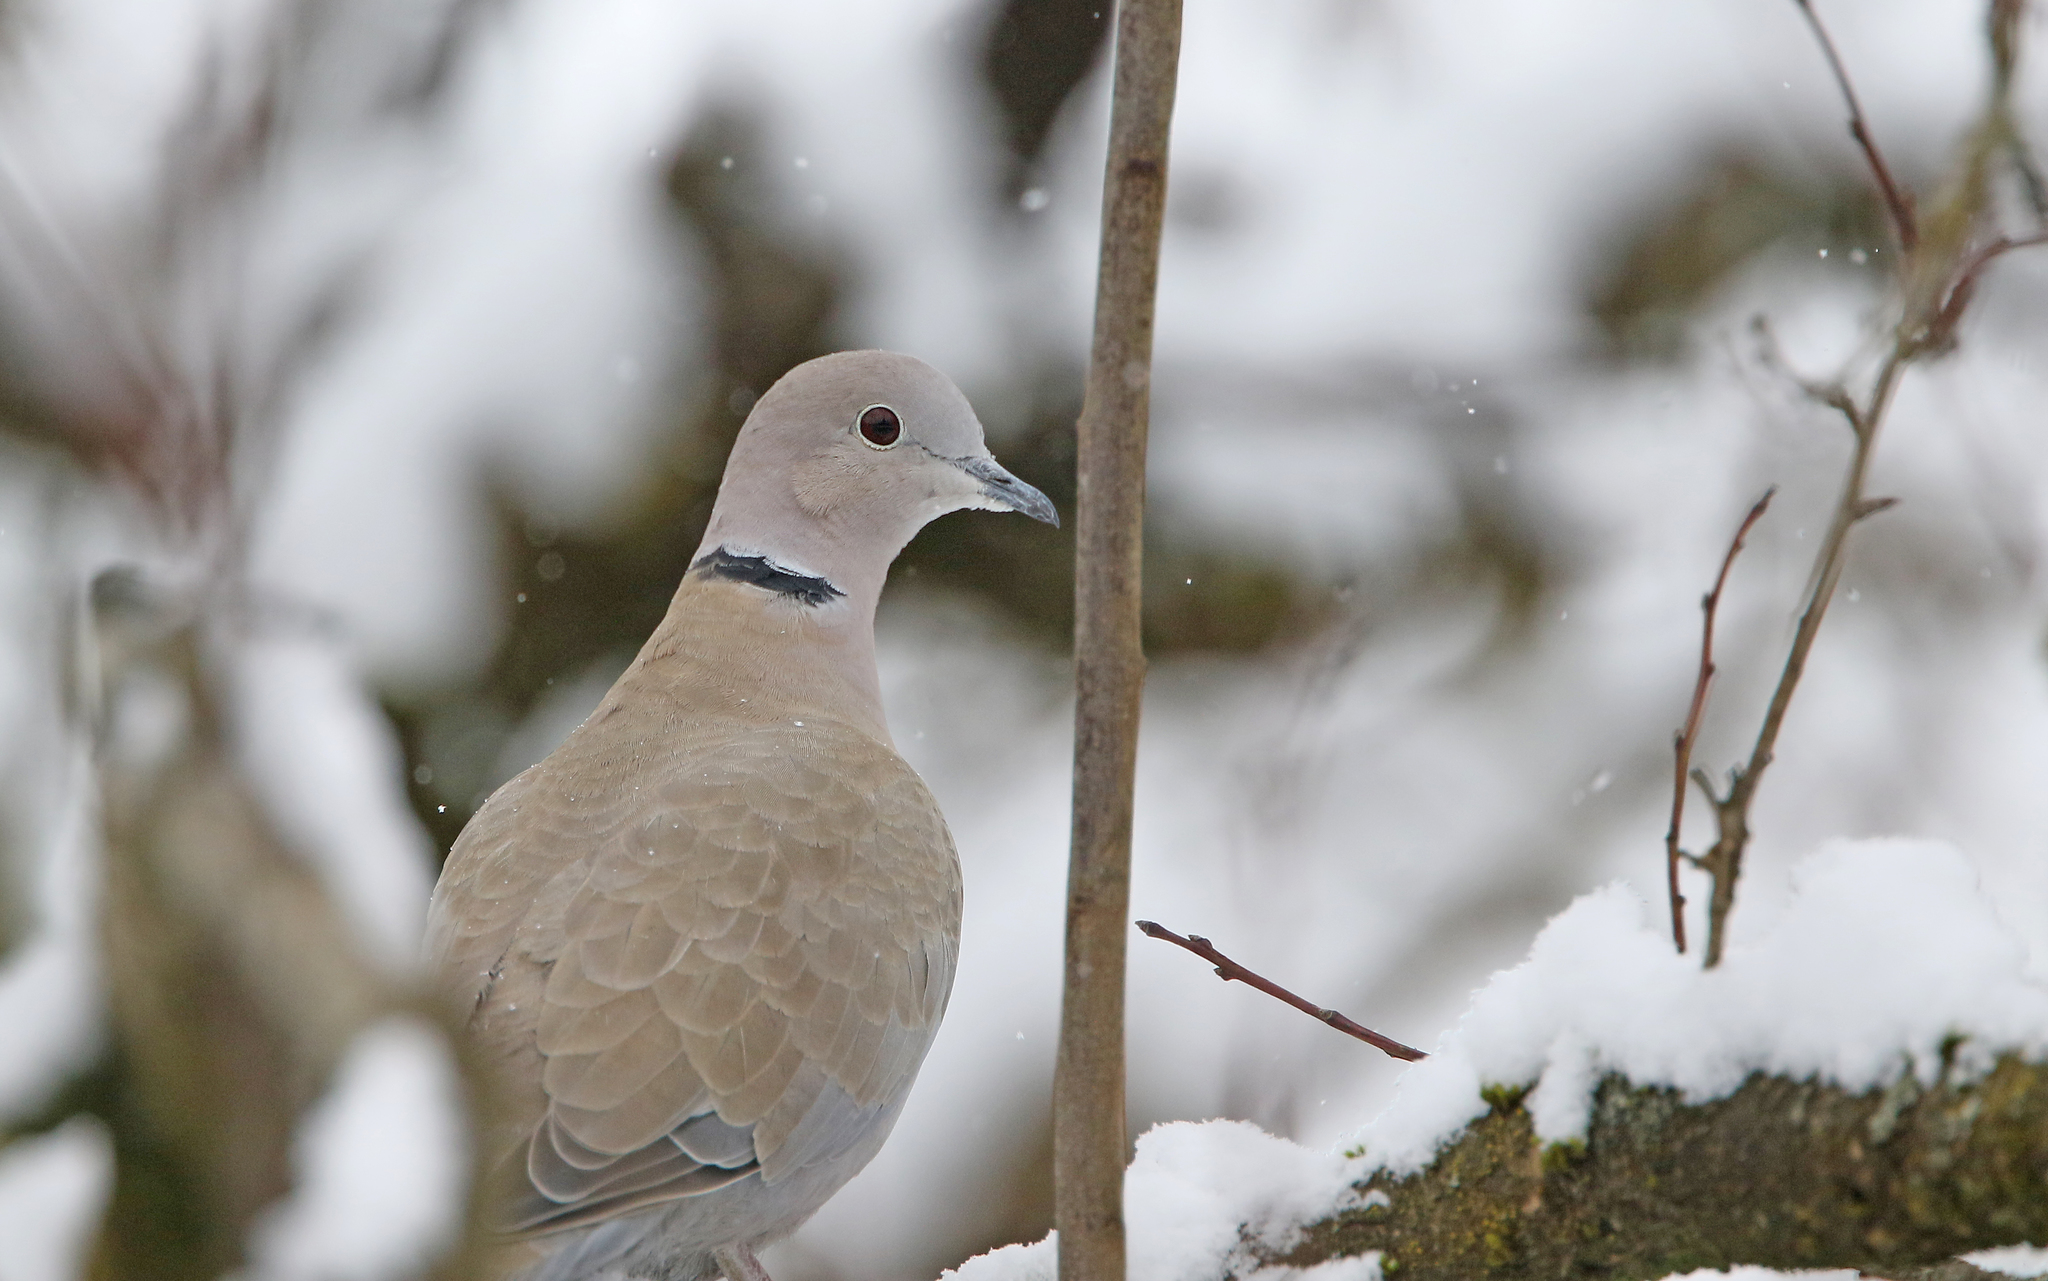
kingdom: Animalia
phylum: Chordata
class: Aves
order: Columbiformes
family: Columbidae
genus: Streptopelia
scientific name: Streptopelia decaocto
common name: Eurasian collared dove
